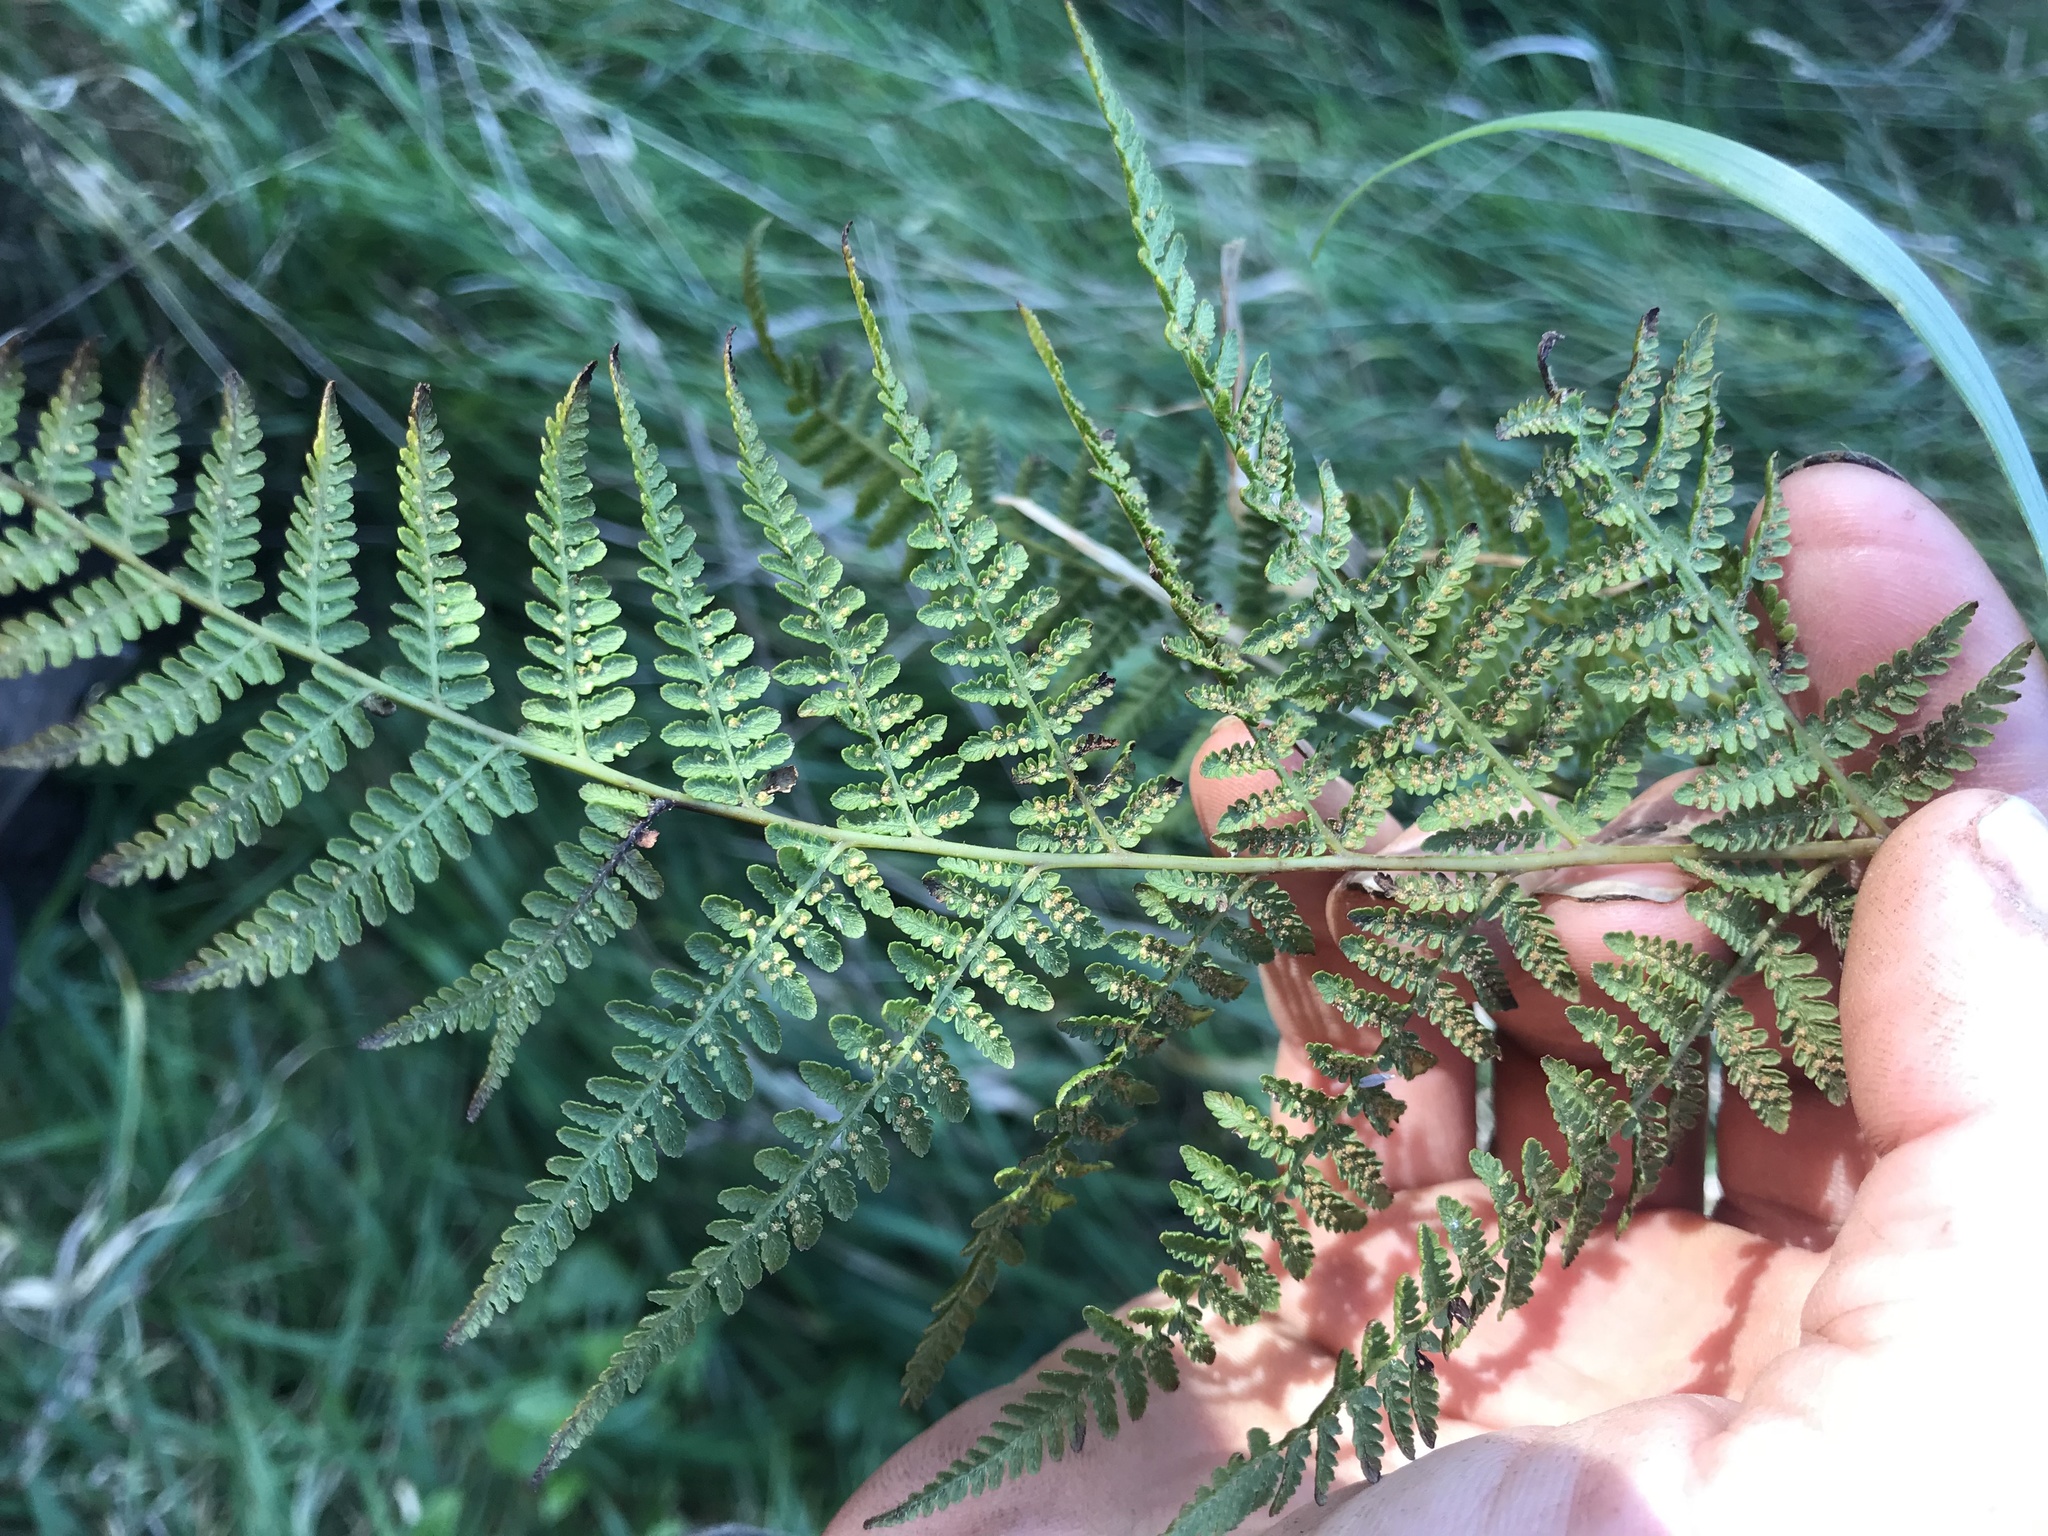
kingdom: Plantae
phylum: Tracheophyta
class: Polypodiopsida
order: Polypodiales
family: Dennstaedtiaceae
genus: Hypolepis
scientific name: Hypolepis ambigua
